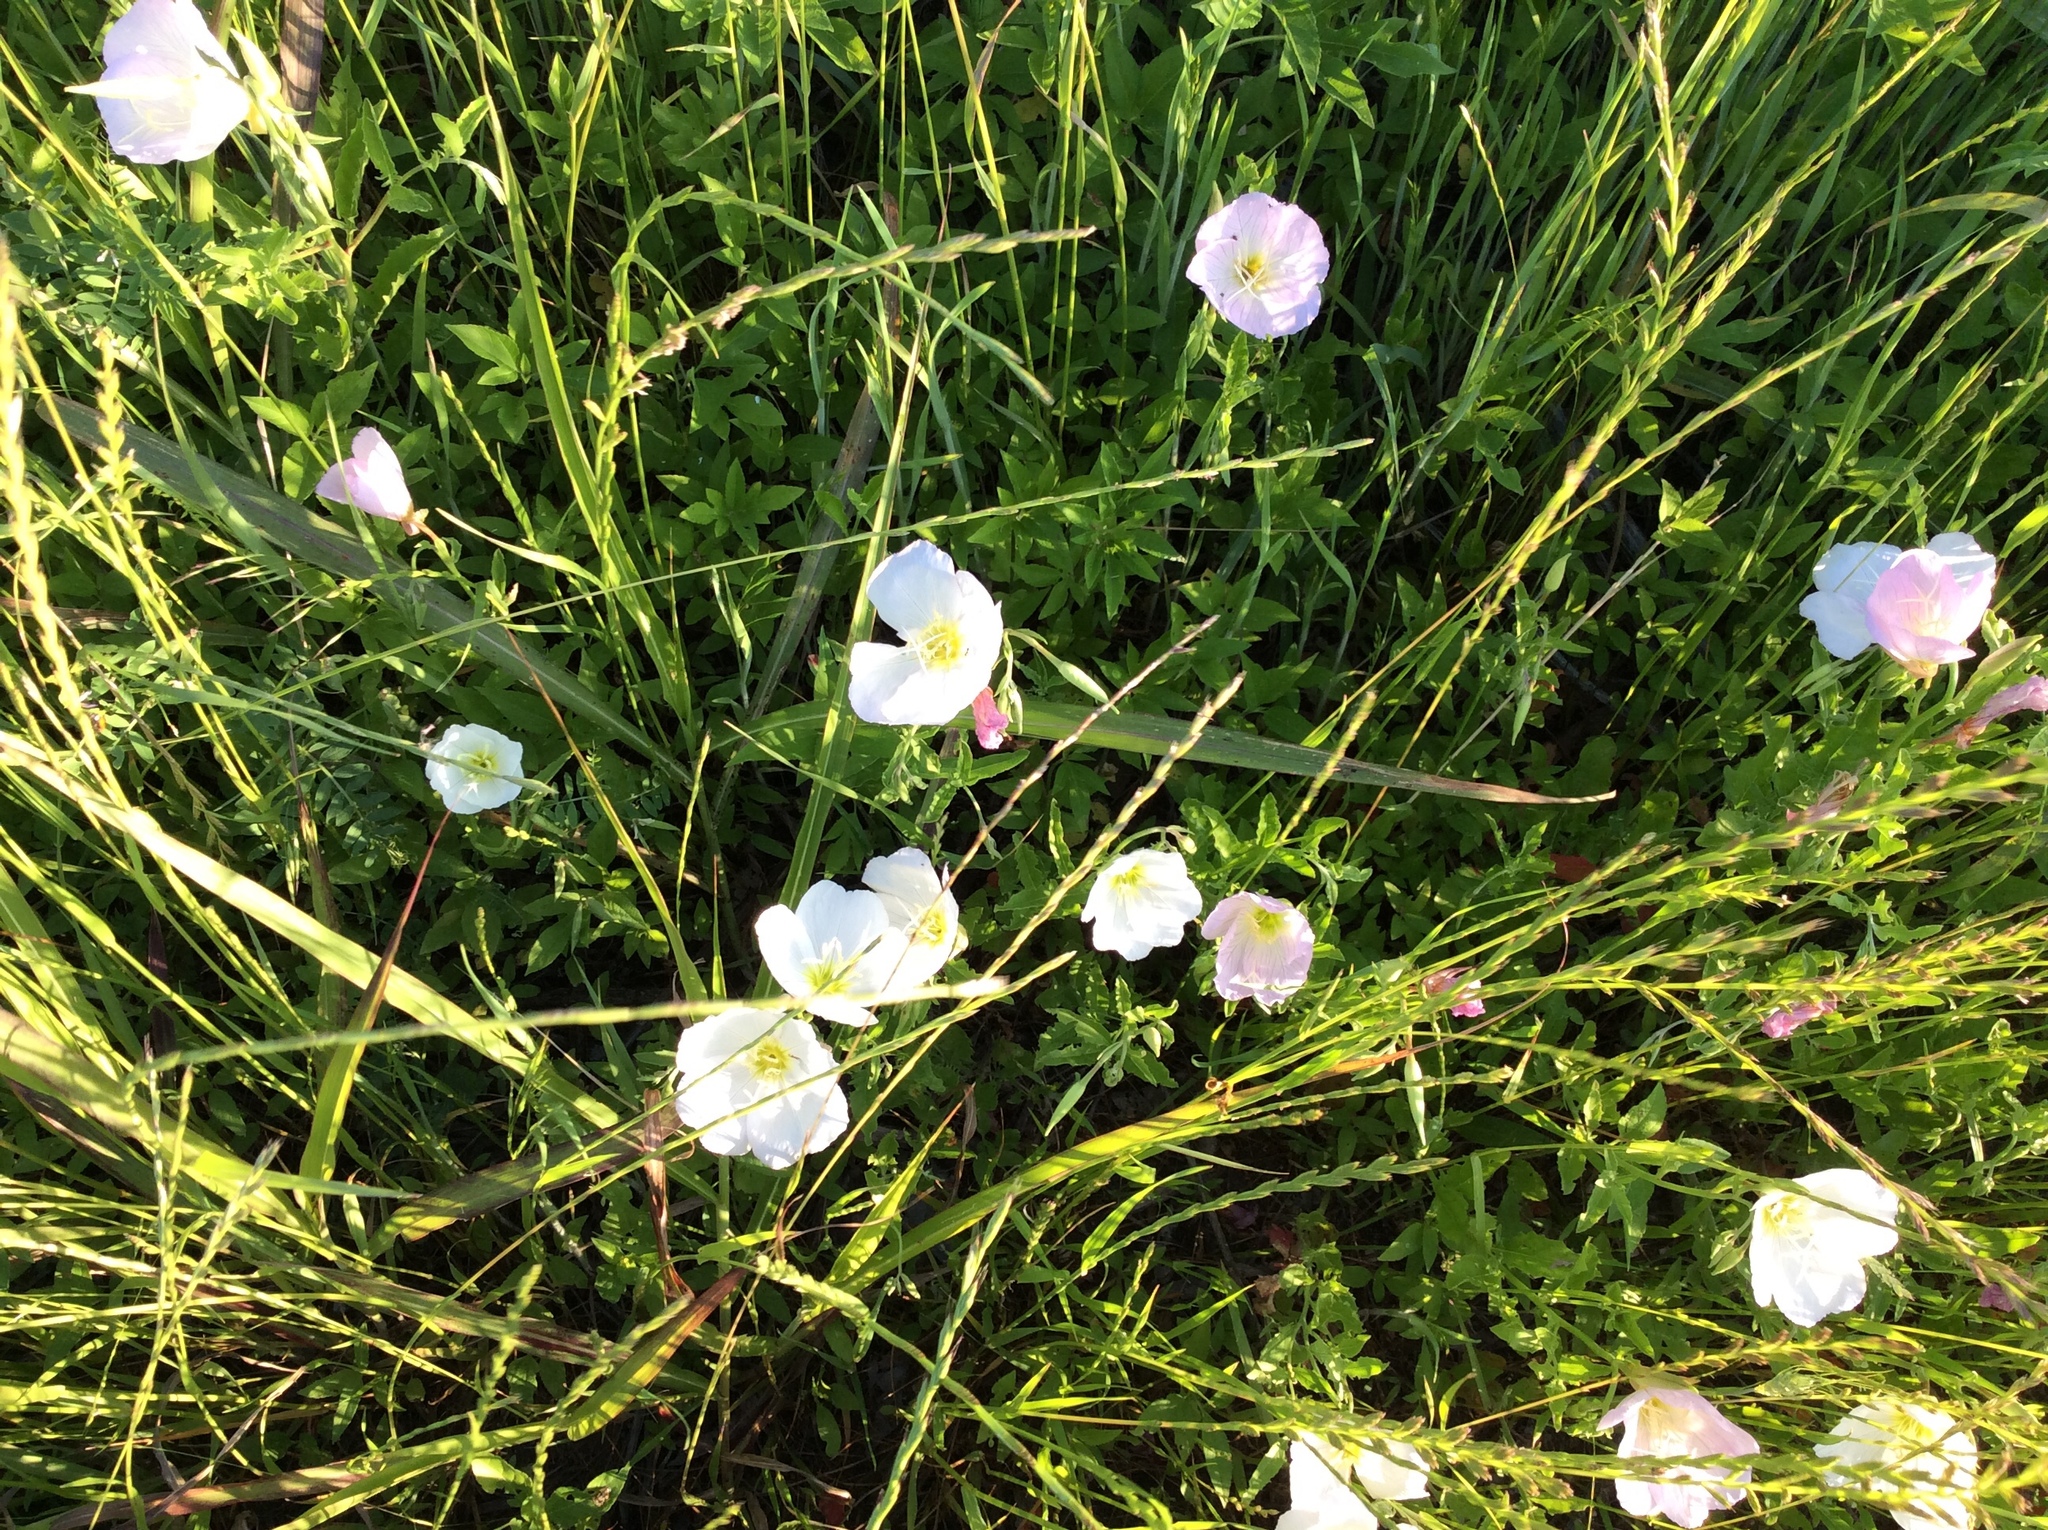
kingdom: Plantae
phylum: Tracheophyta
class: Magnoliopsida
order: Myrtales
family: Onagraceae
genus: Oenothera
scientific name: Oenothera speciosa
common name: White evening-primrose
